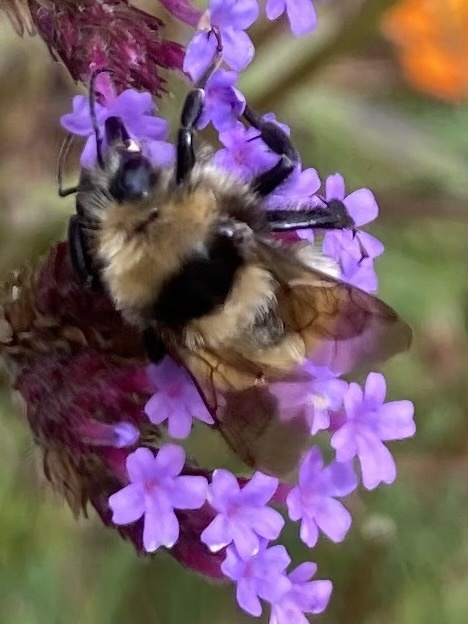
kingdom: Animalia
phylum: Arthropoda
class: Insecta
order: Hymenoptera
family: Apidae
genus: Bombus
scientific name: Bombus borealis
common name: Northern amber bumble bee
